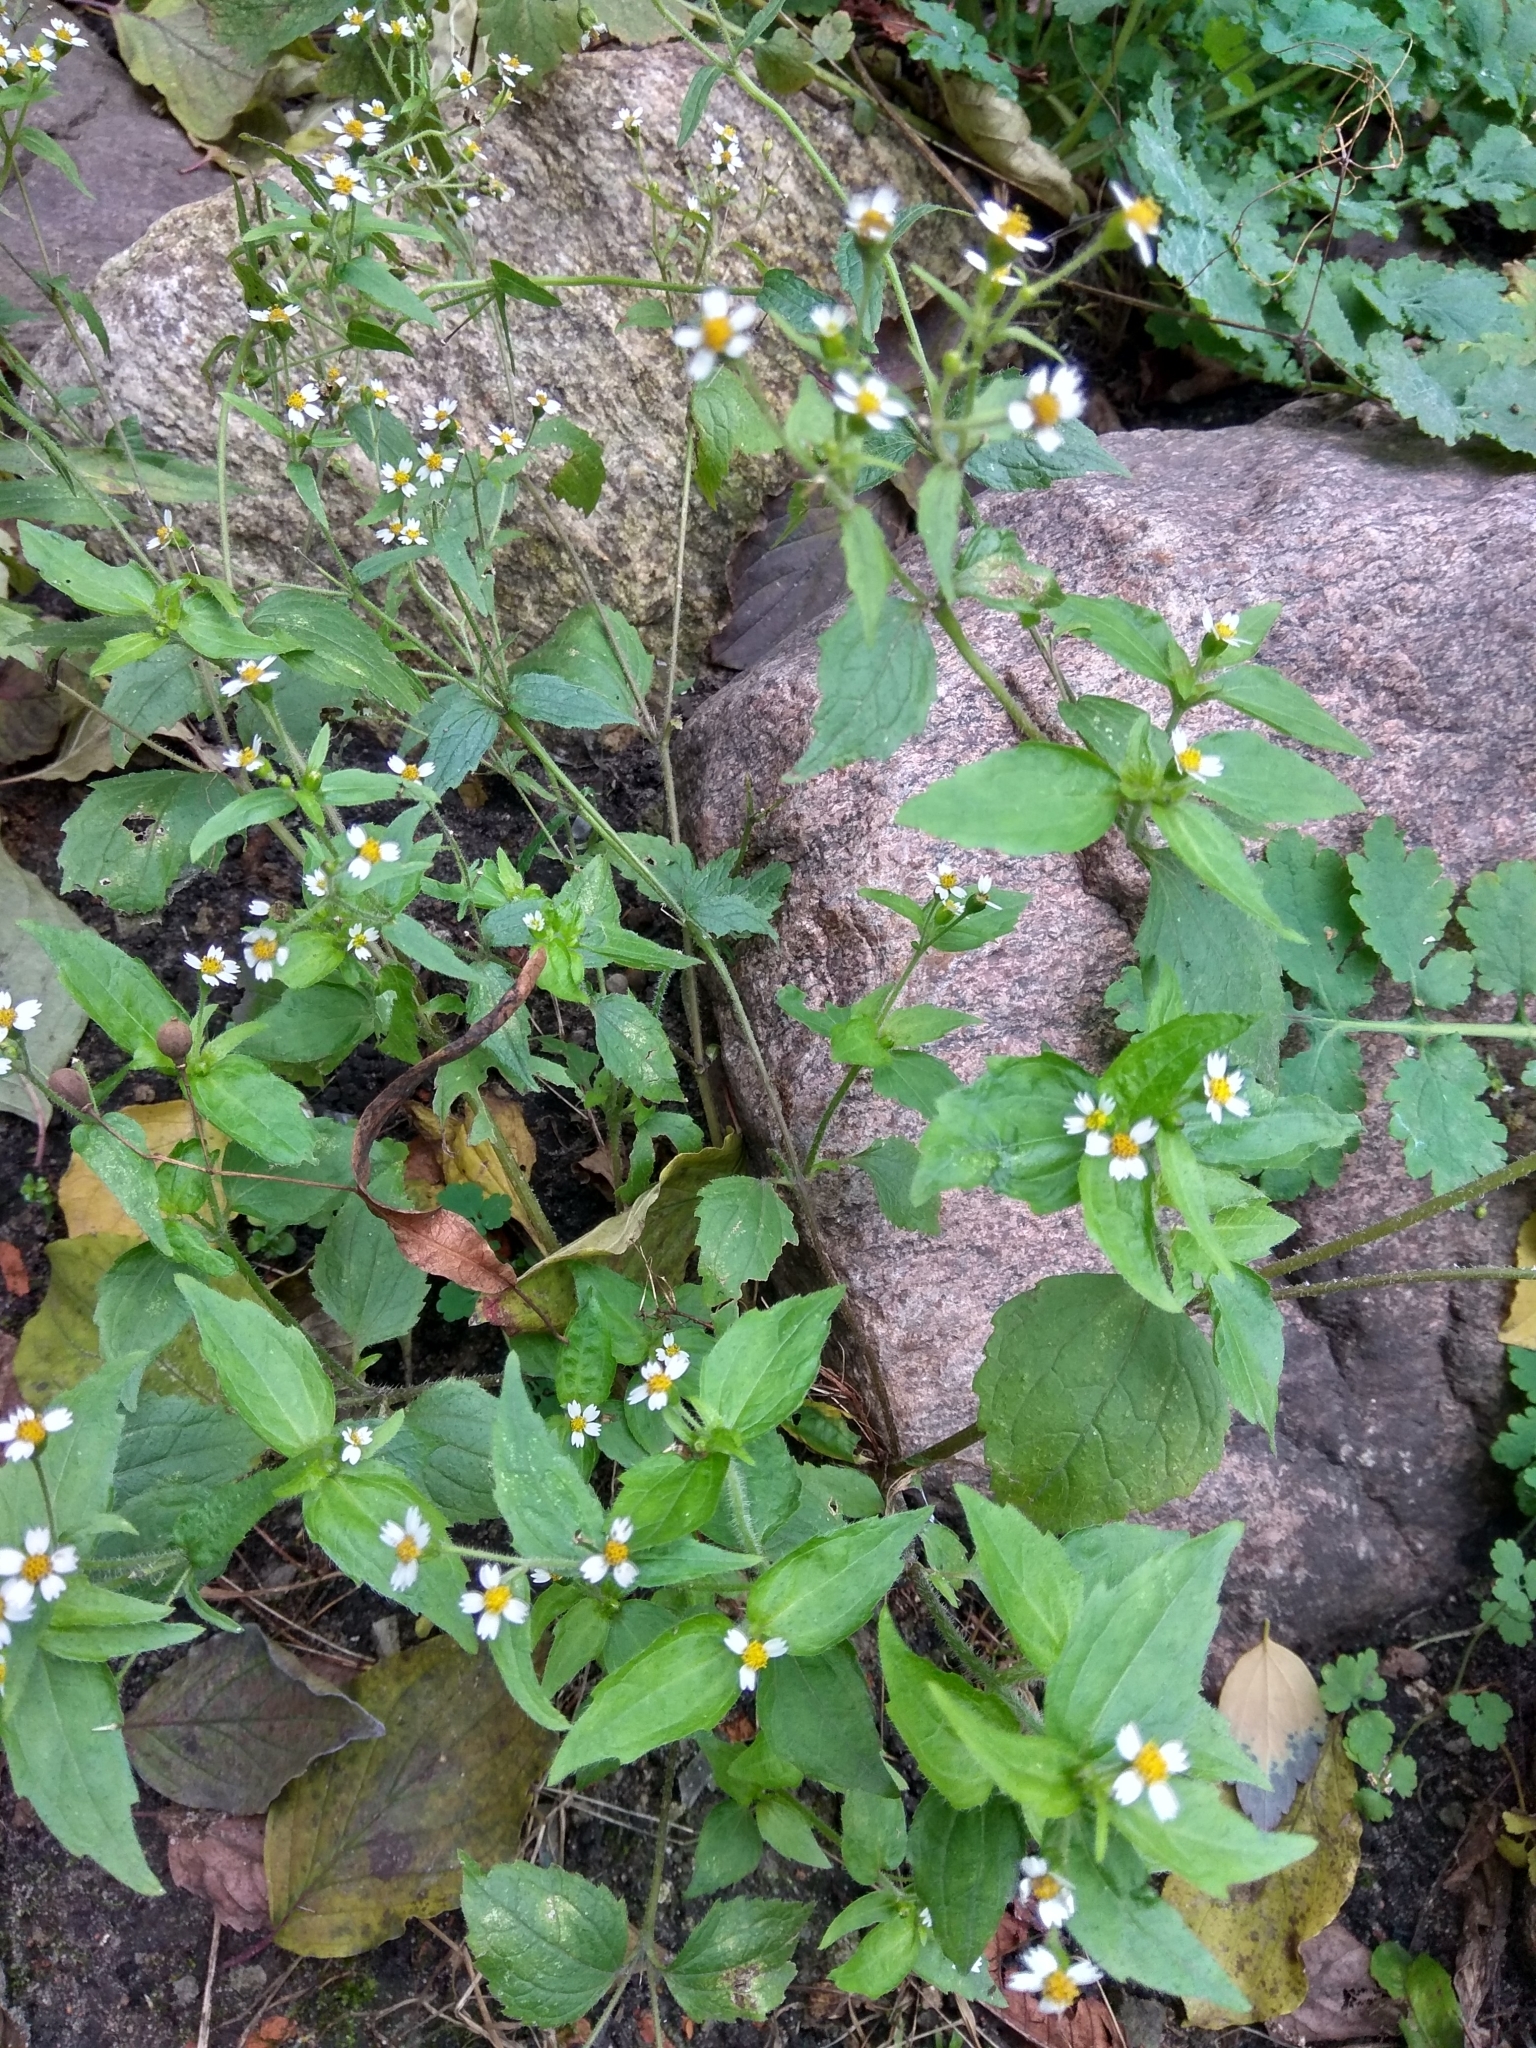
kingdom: Plantae
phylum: Tracheophyta
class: Magnoliopsida
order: Asterales
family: Asteraceae
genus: Galinsoga
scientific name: Galinsoga quadriradiata
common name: Shaggy soldier
